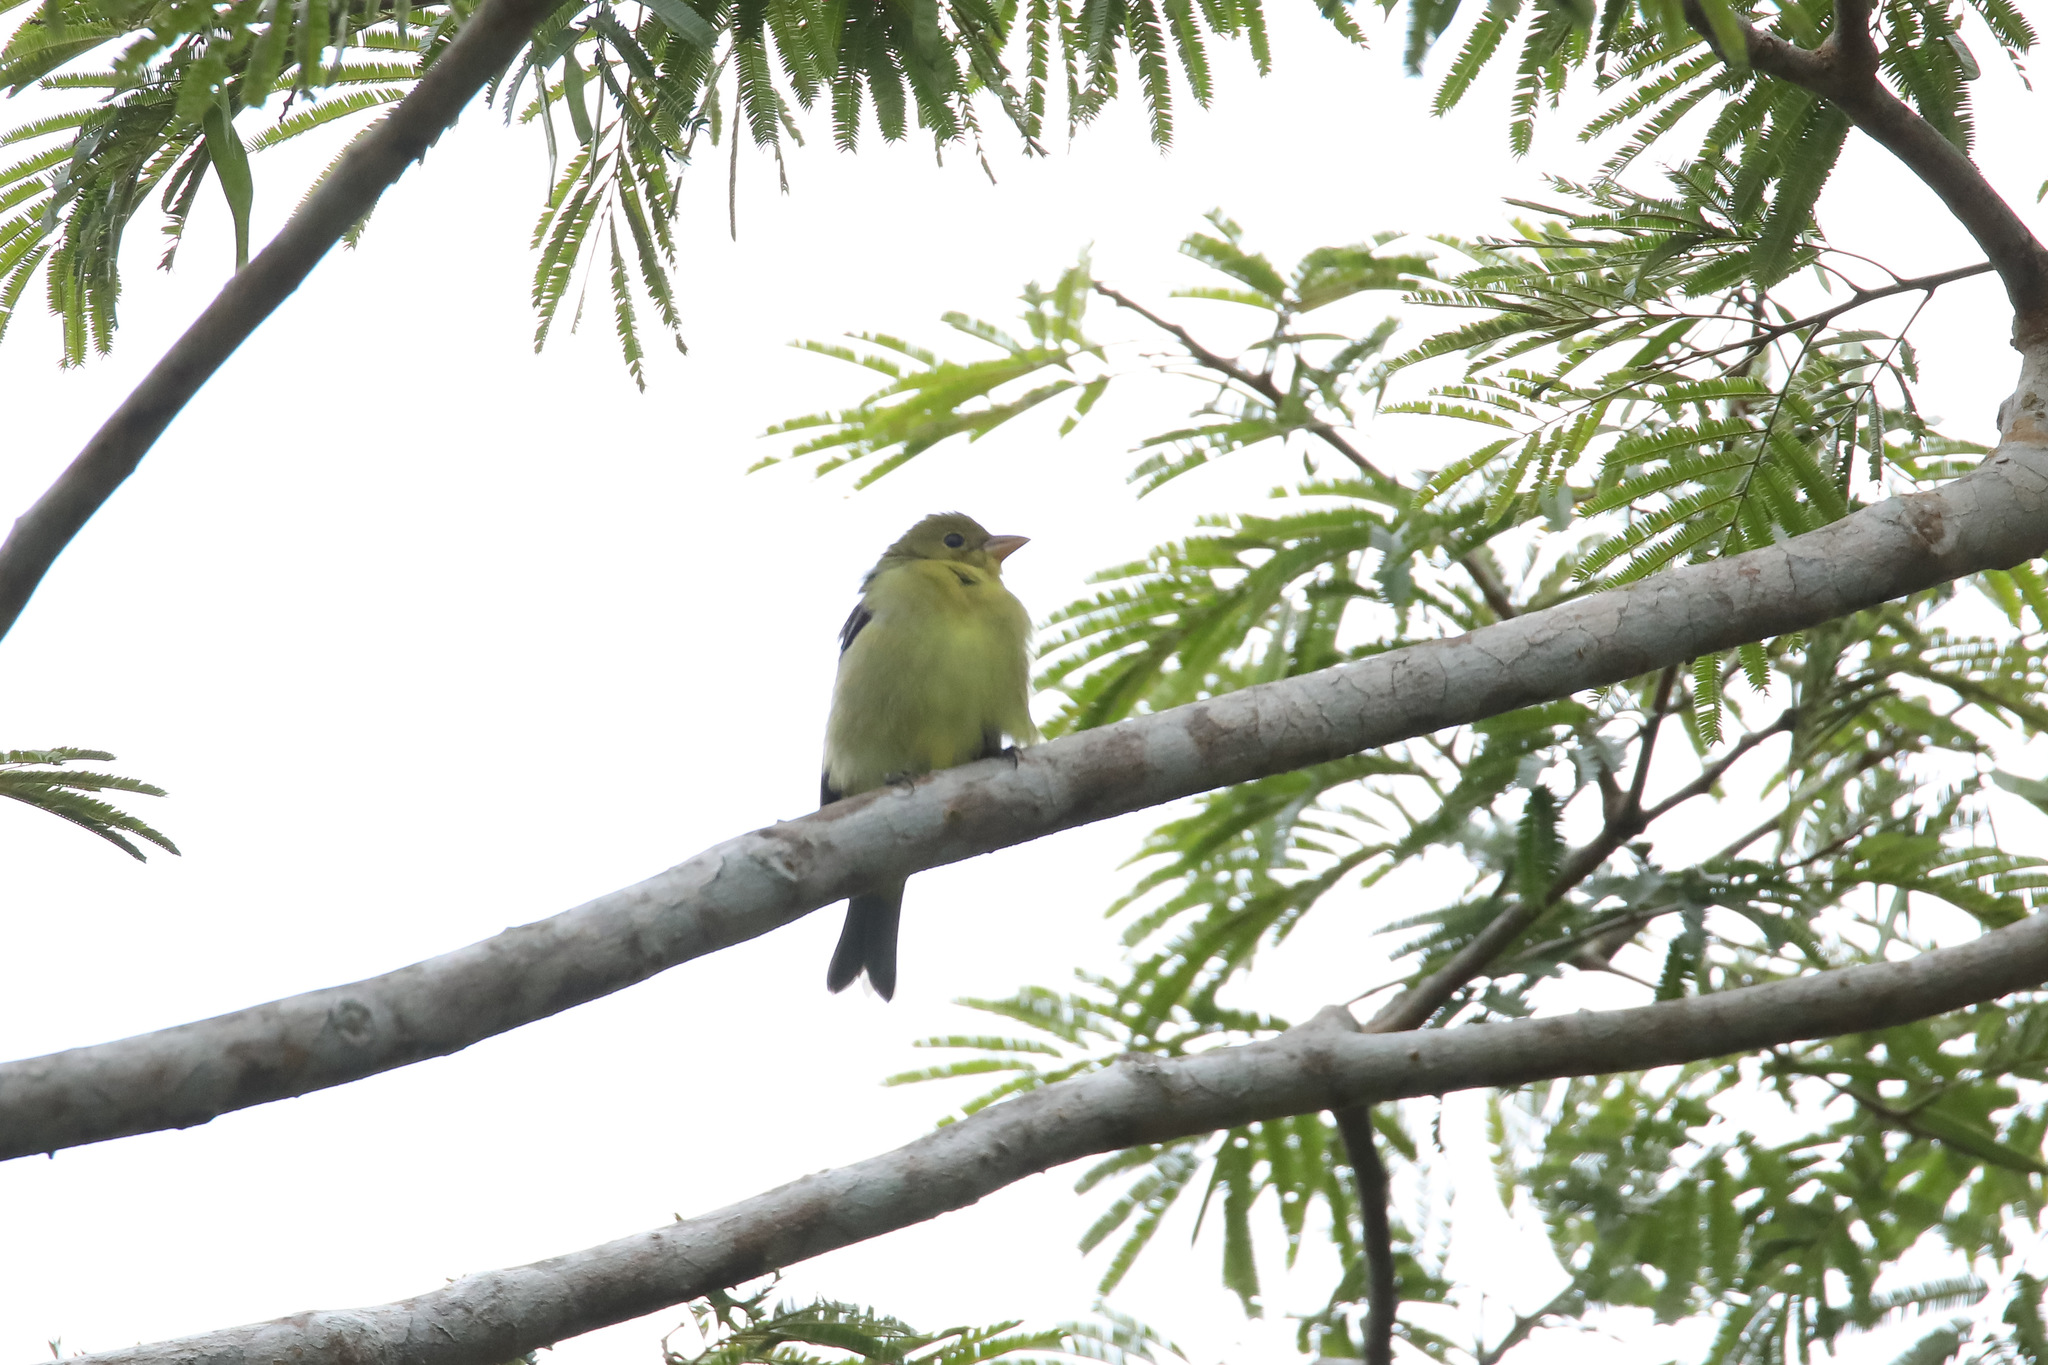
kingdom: Animalia
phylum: Chordata
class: Aves
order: Passeriformes
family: Cardinalidae
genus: Piranga
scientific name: Piranga olivacea
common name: Scarlet tanager
